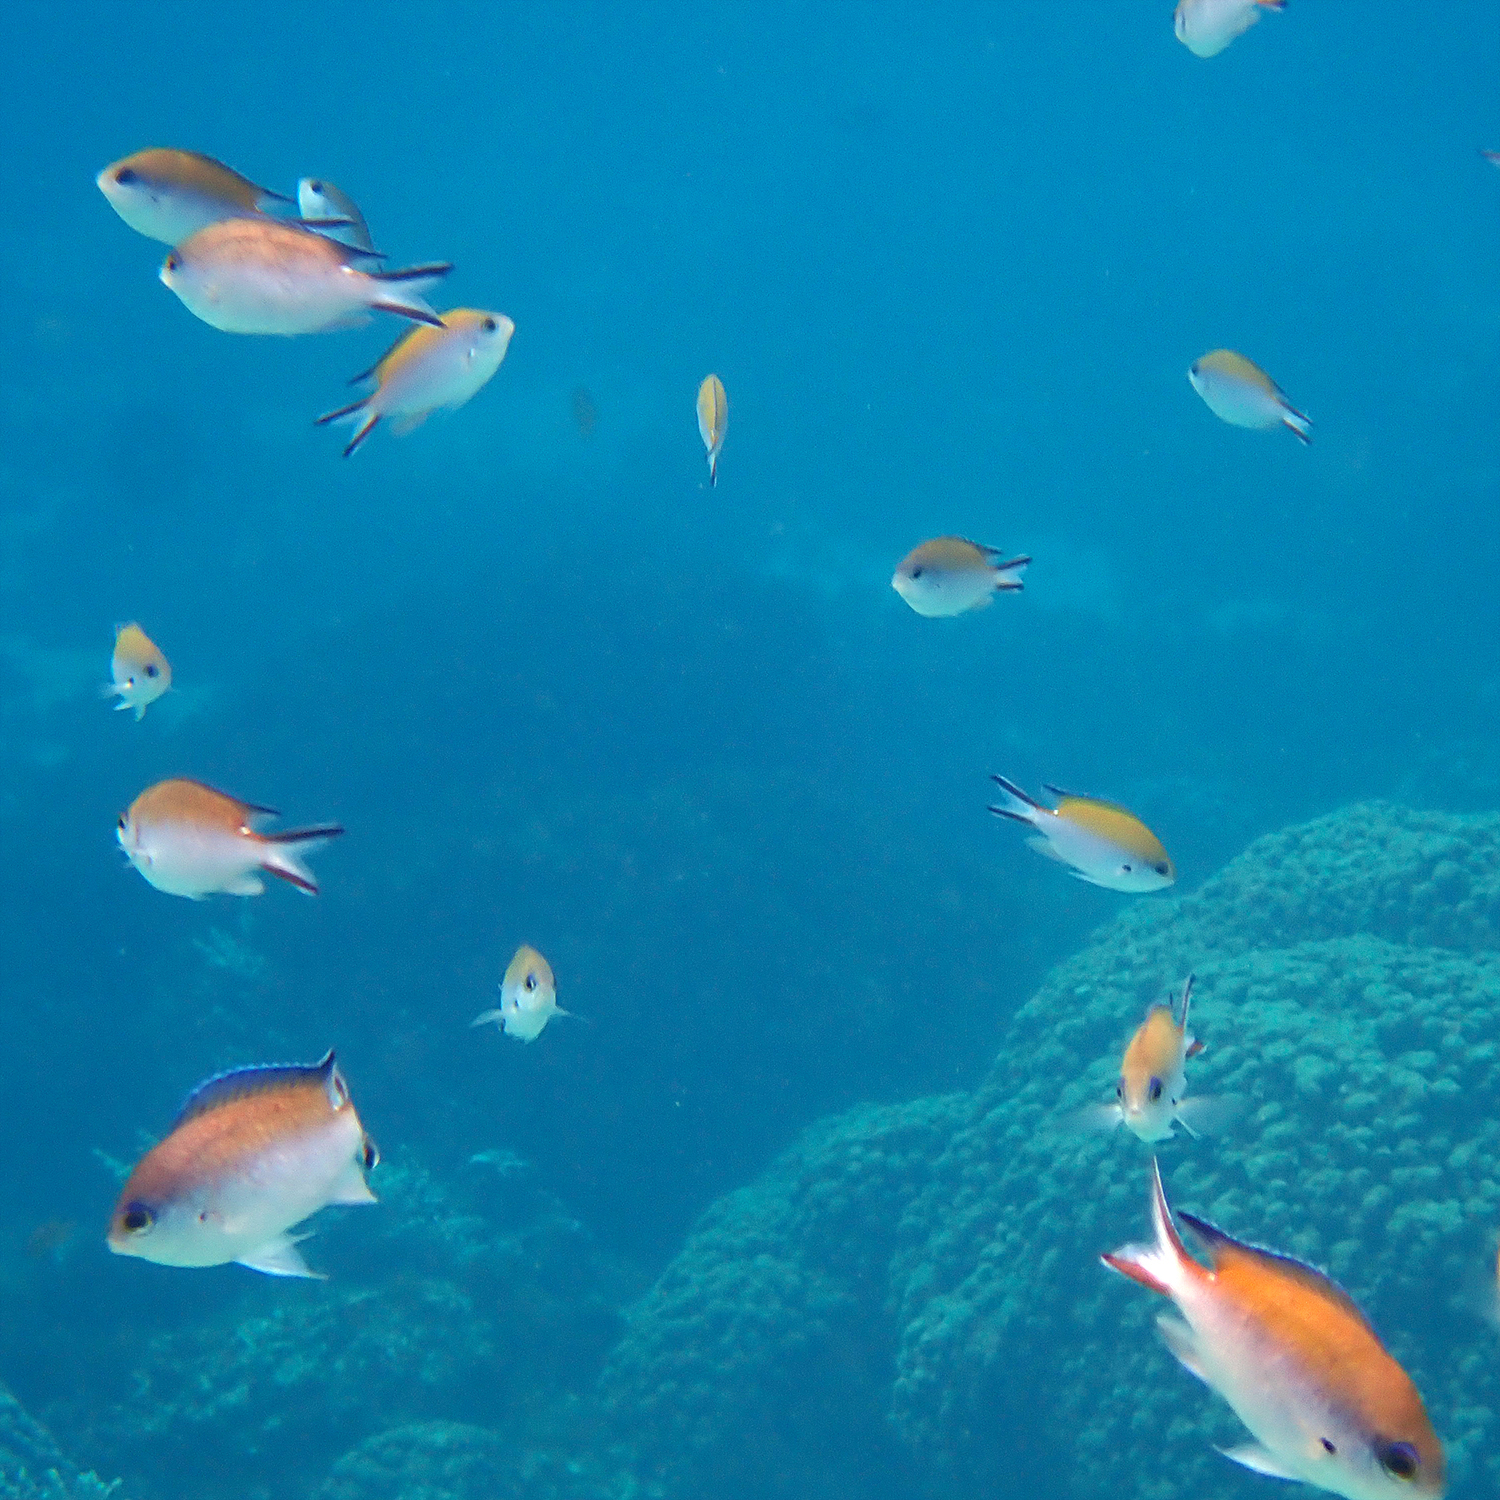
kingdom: Animalia
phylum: Chordata
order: Perciformes
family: Pomacentridae
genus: Chromis
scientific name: Chromis norfolkensis
